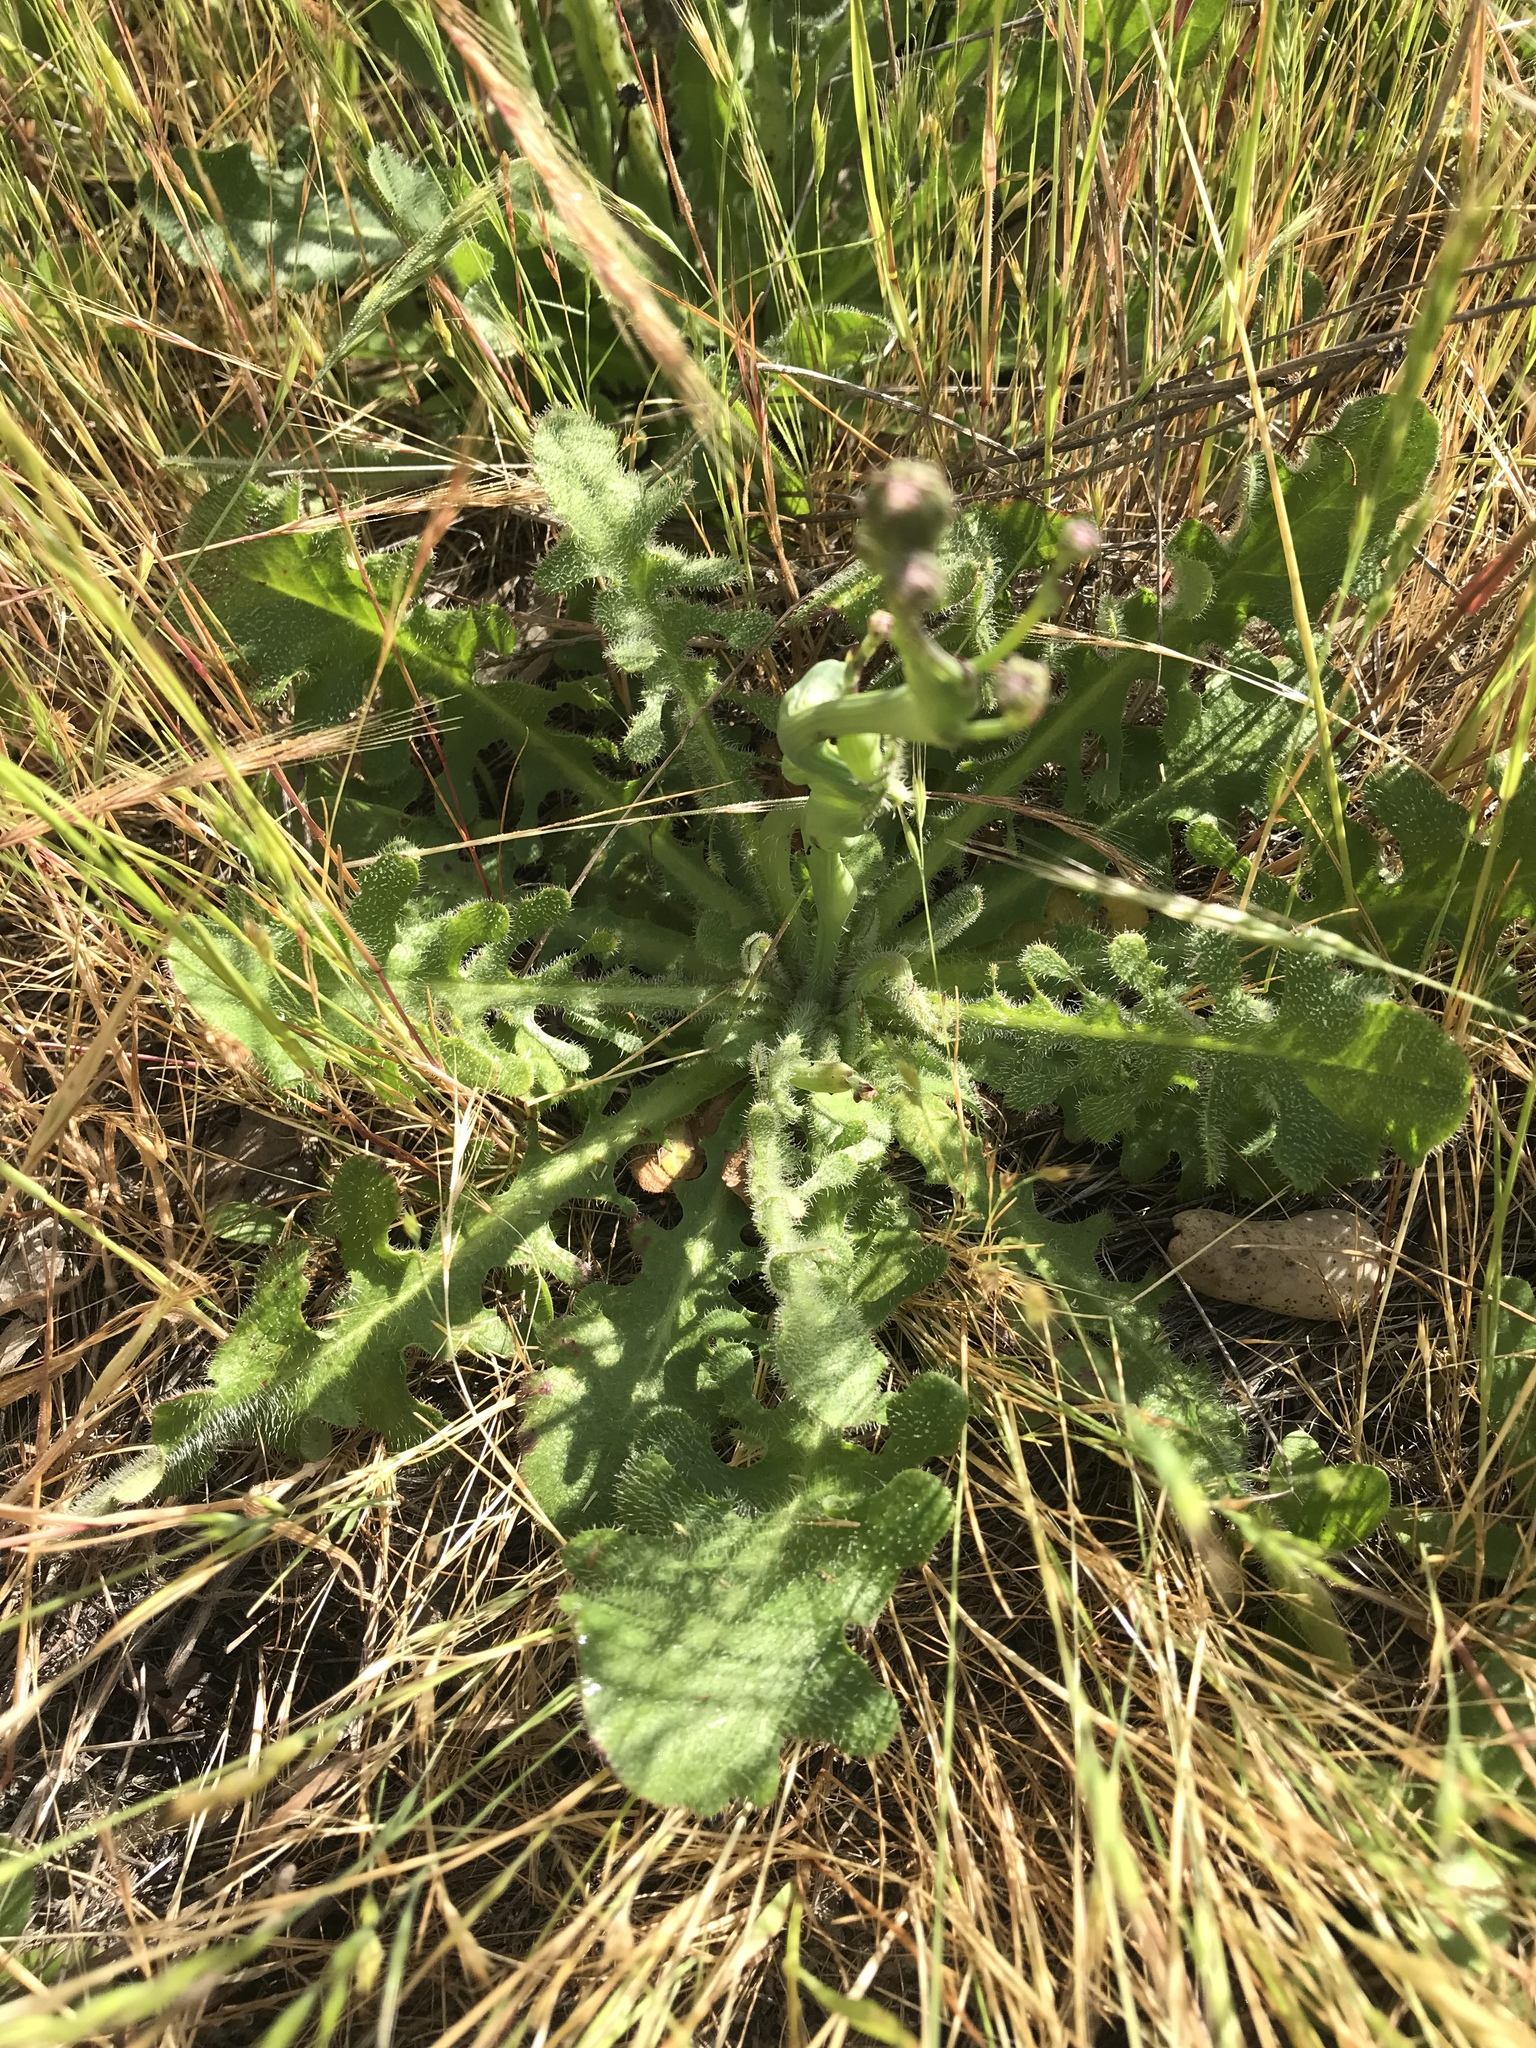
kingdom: Plantae
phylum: Tracheophyta
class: Magnoliopsida
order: Asterales
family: Asteraceae
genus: Hypochaeris
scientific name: Hypochaeris radicata
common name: Flatweed
